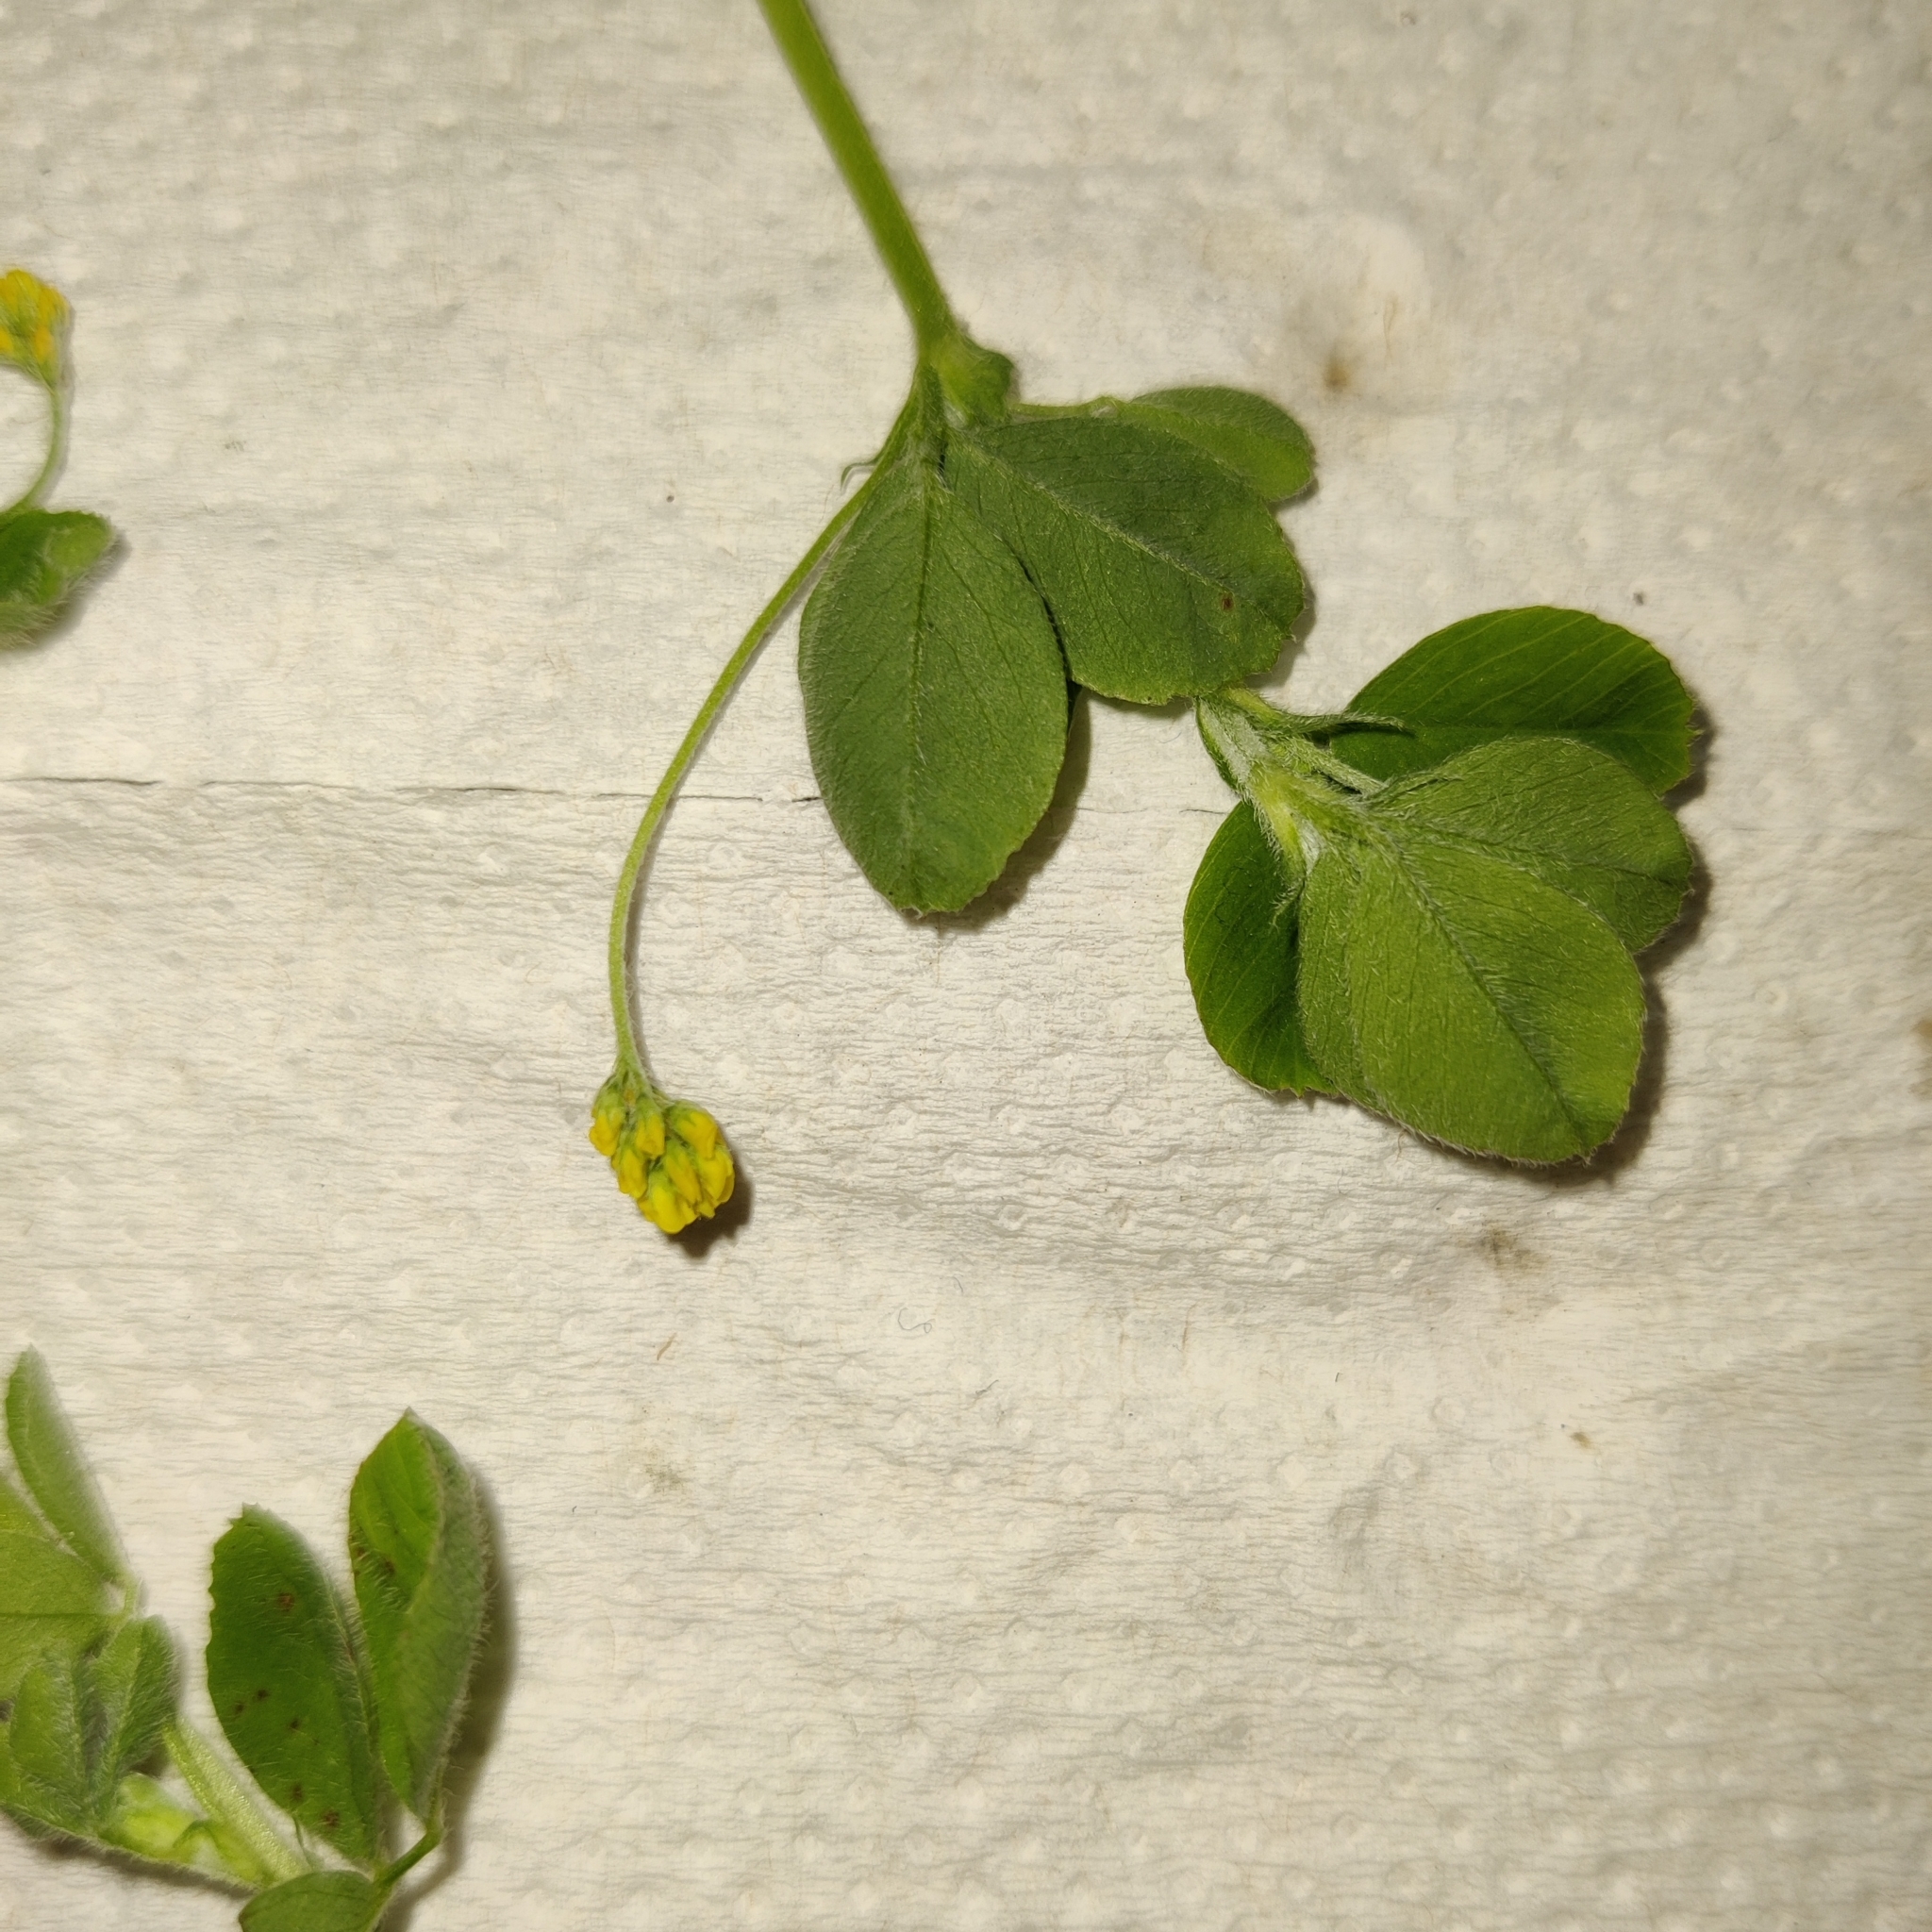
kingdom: Plantae
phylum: Tracheophyta
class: Magnoliopsida
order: Fabales
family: Fabaceae
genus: Trifolium
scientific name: Trifolium dubium
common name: Suckling clover
